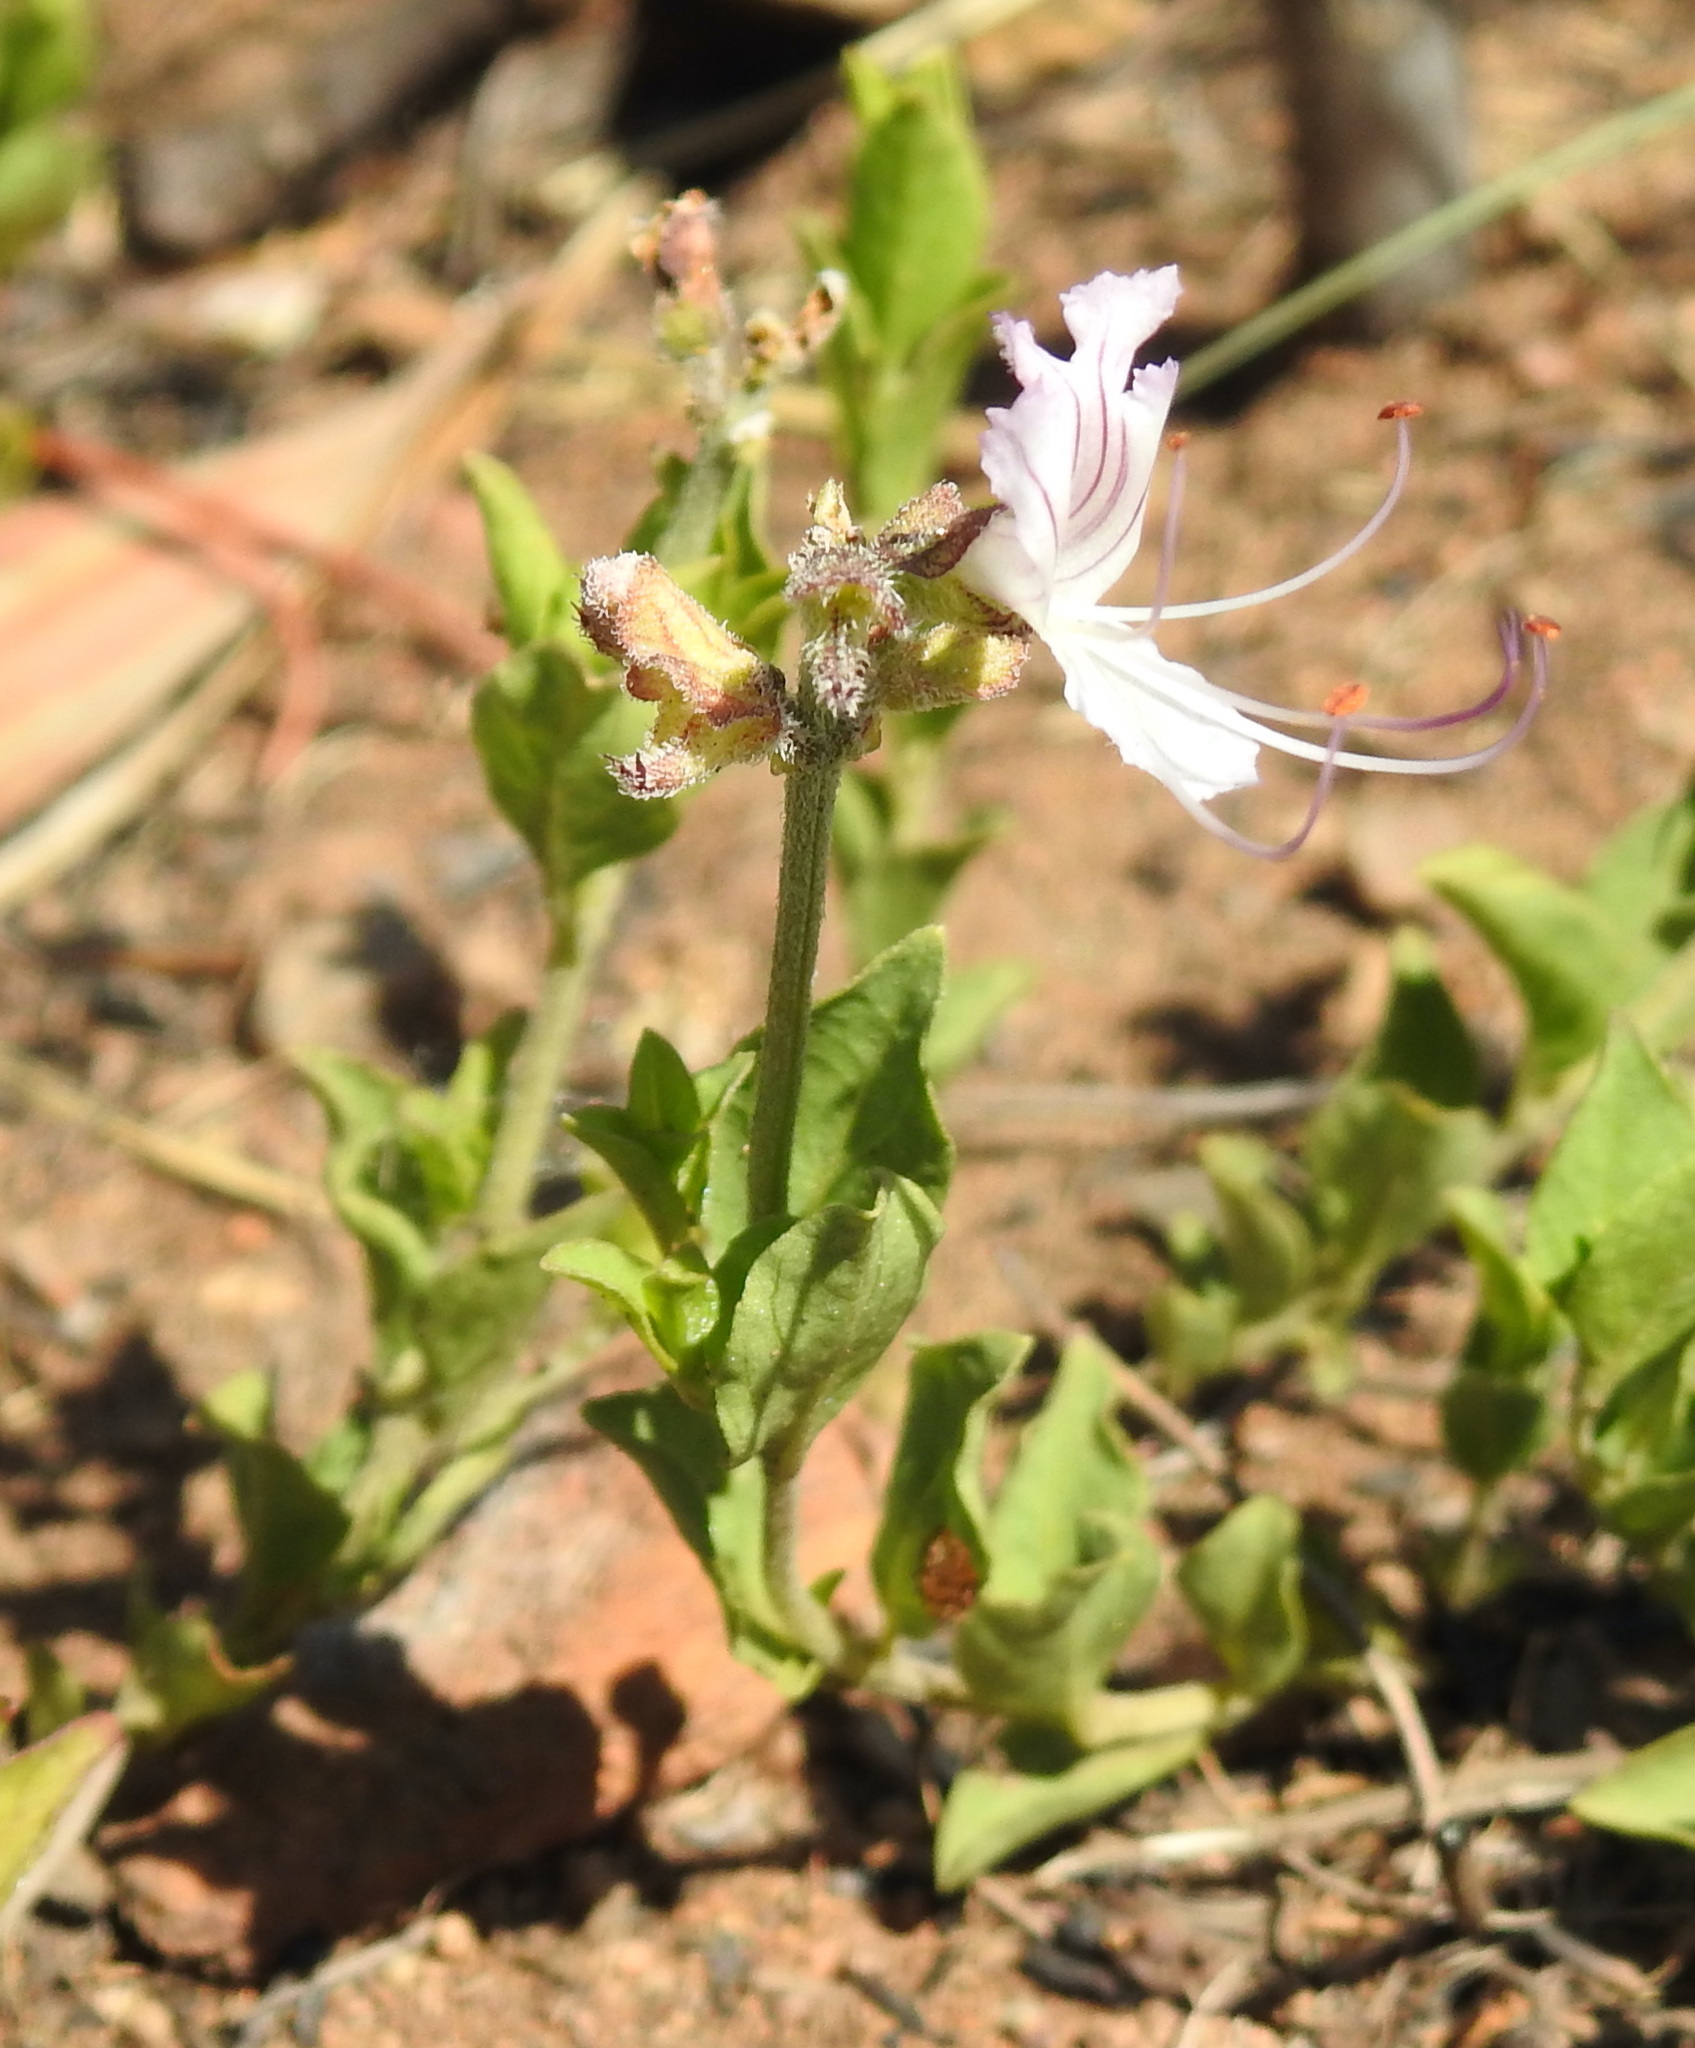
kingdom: Plantae
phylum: Tracheophyta
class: Magnoliopsida
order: Lamiales
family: Lamiaceae
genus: Ocimum
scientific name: Ocimum obovatum
